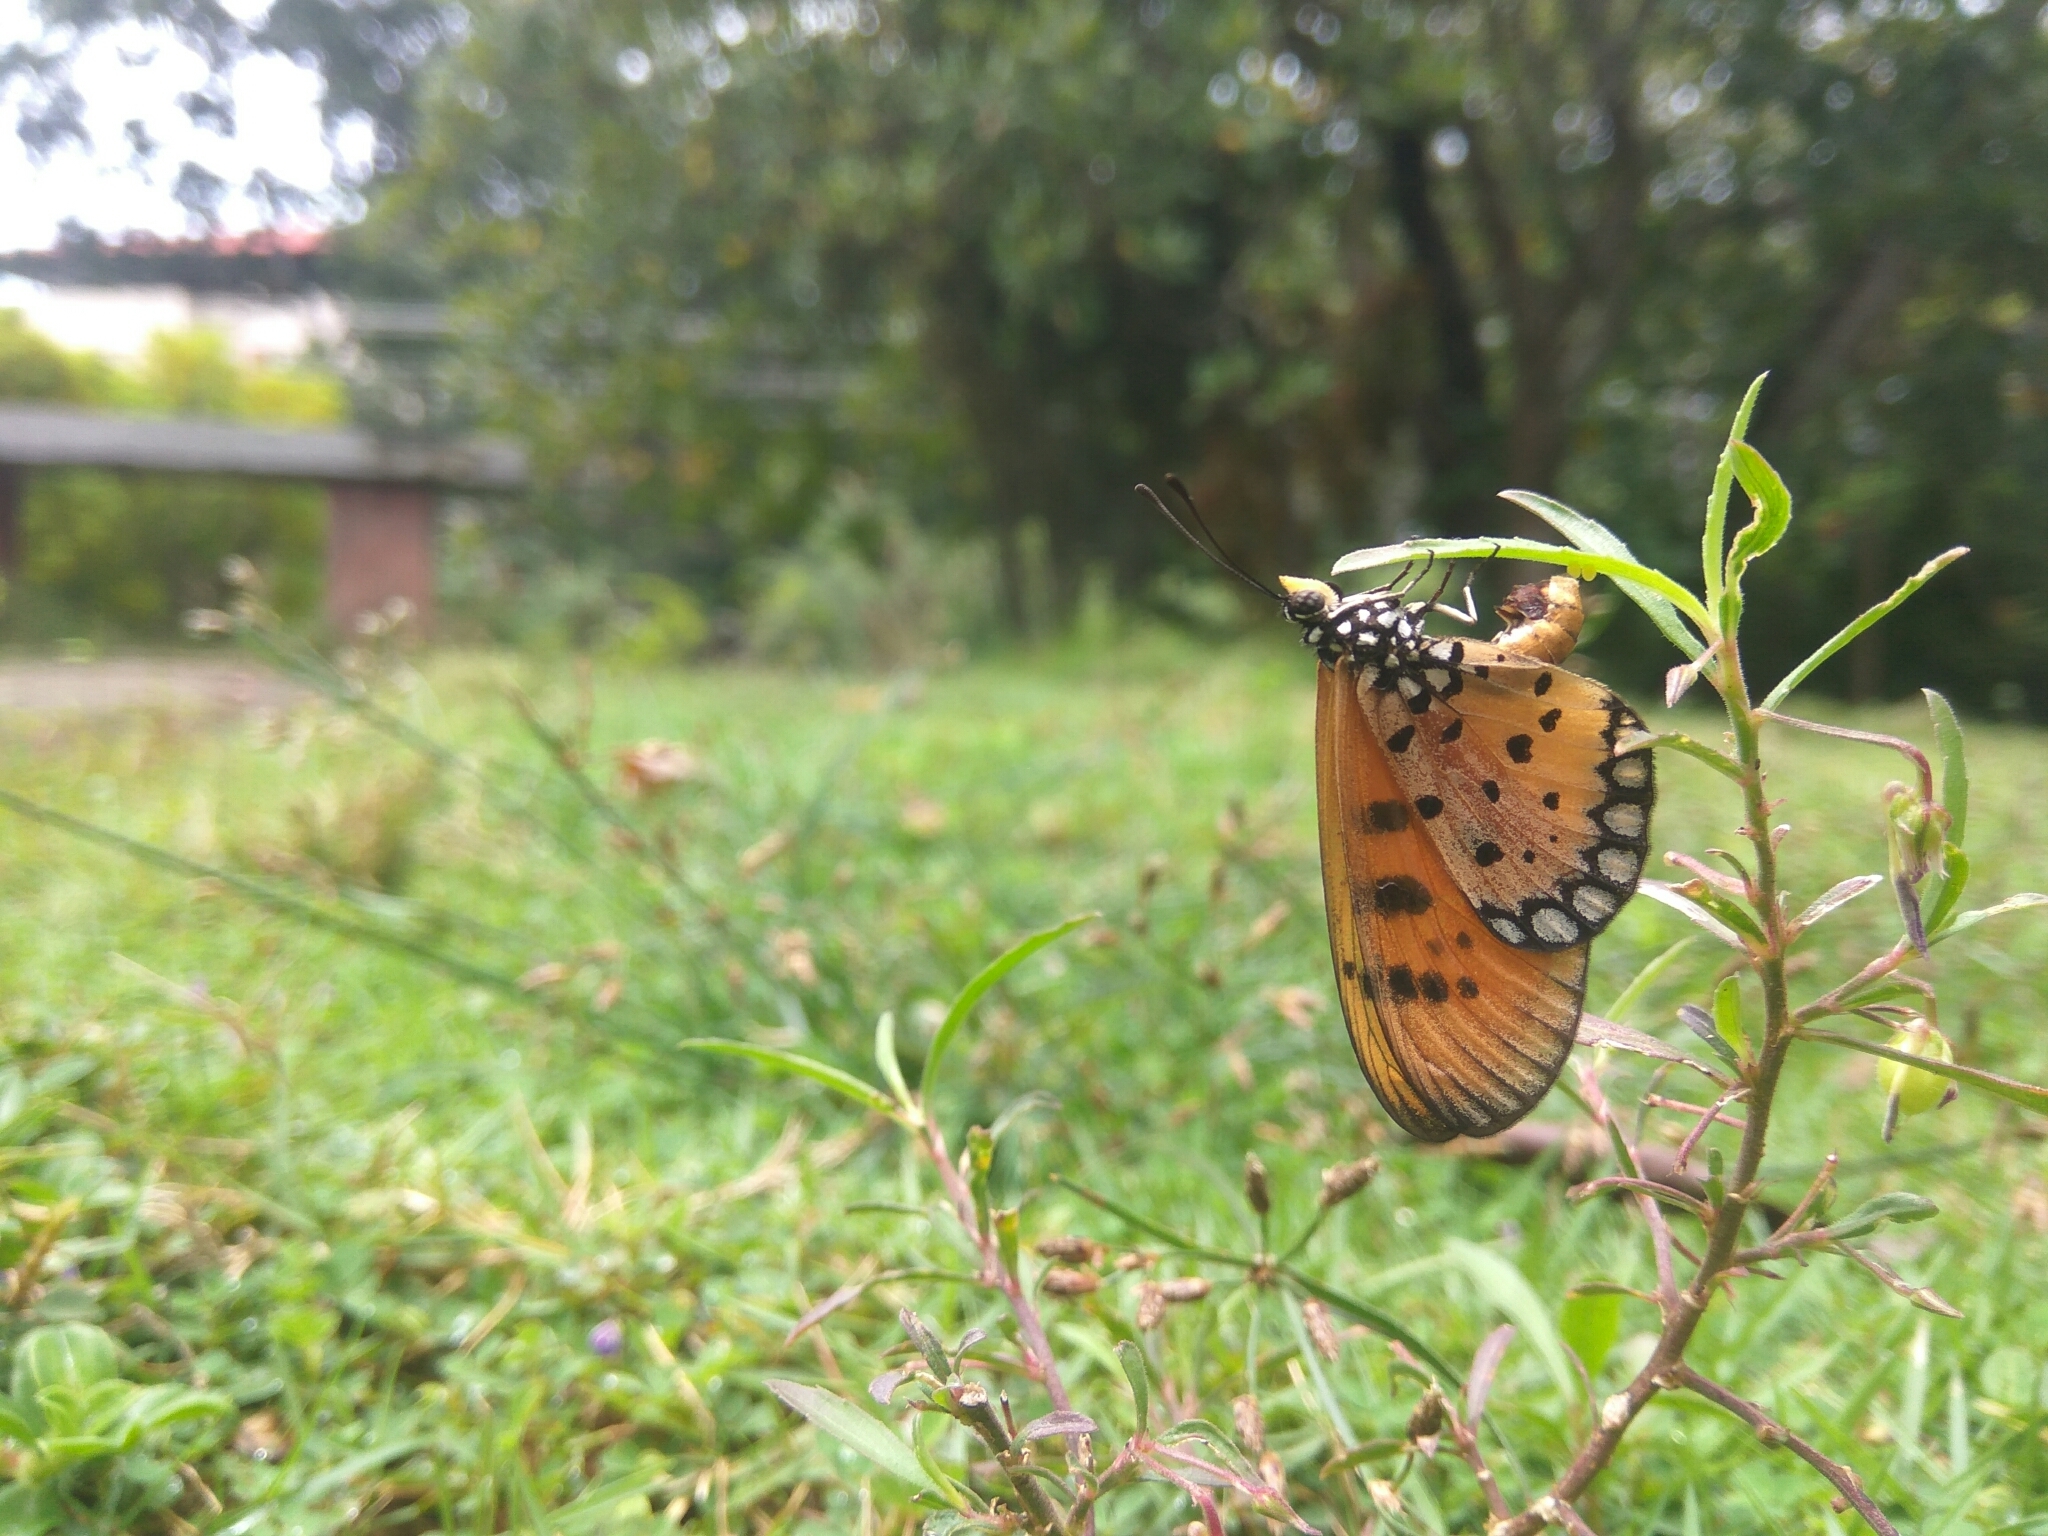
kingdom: Animalia
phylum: Arthropoda
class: Insecta
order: Lepidoptera
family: Nymphalidae
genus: Acraea
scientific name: Acraea terpsicore
